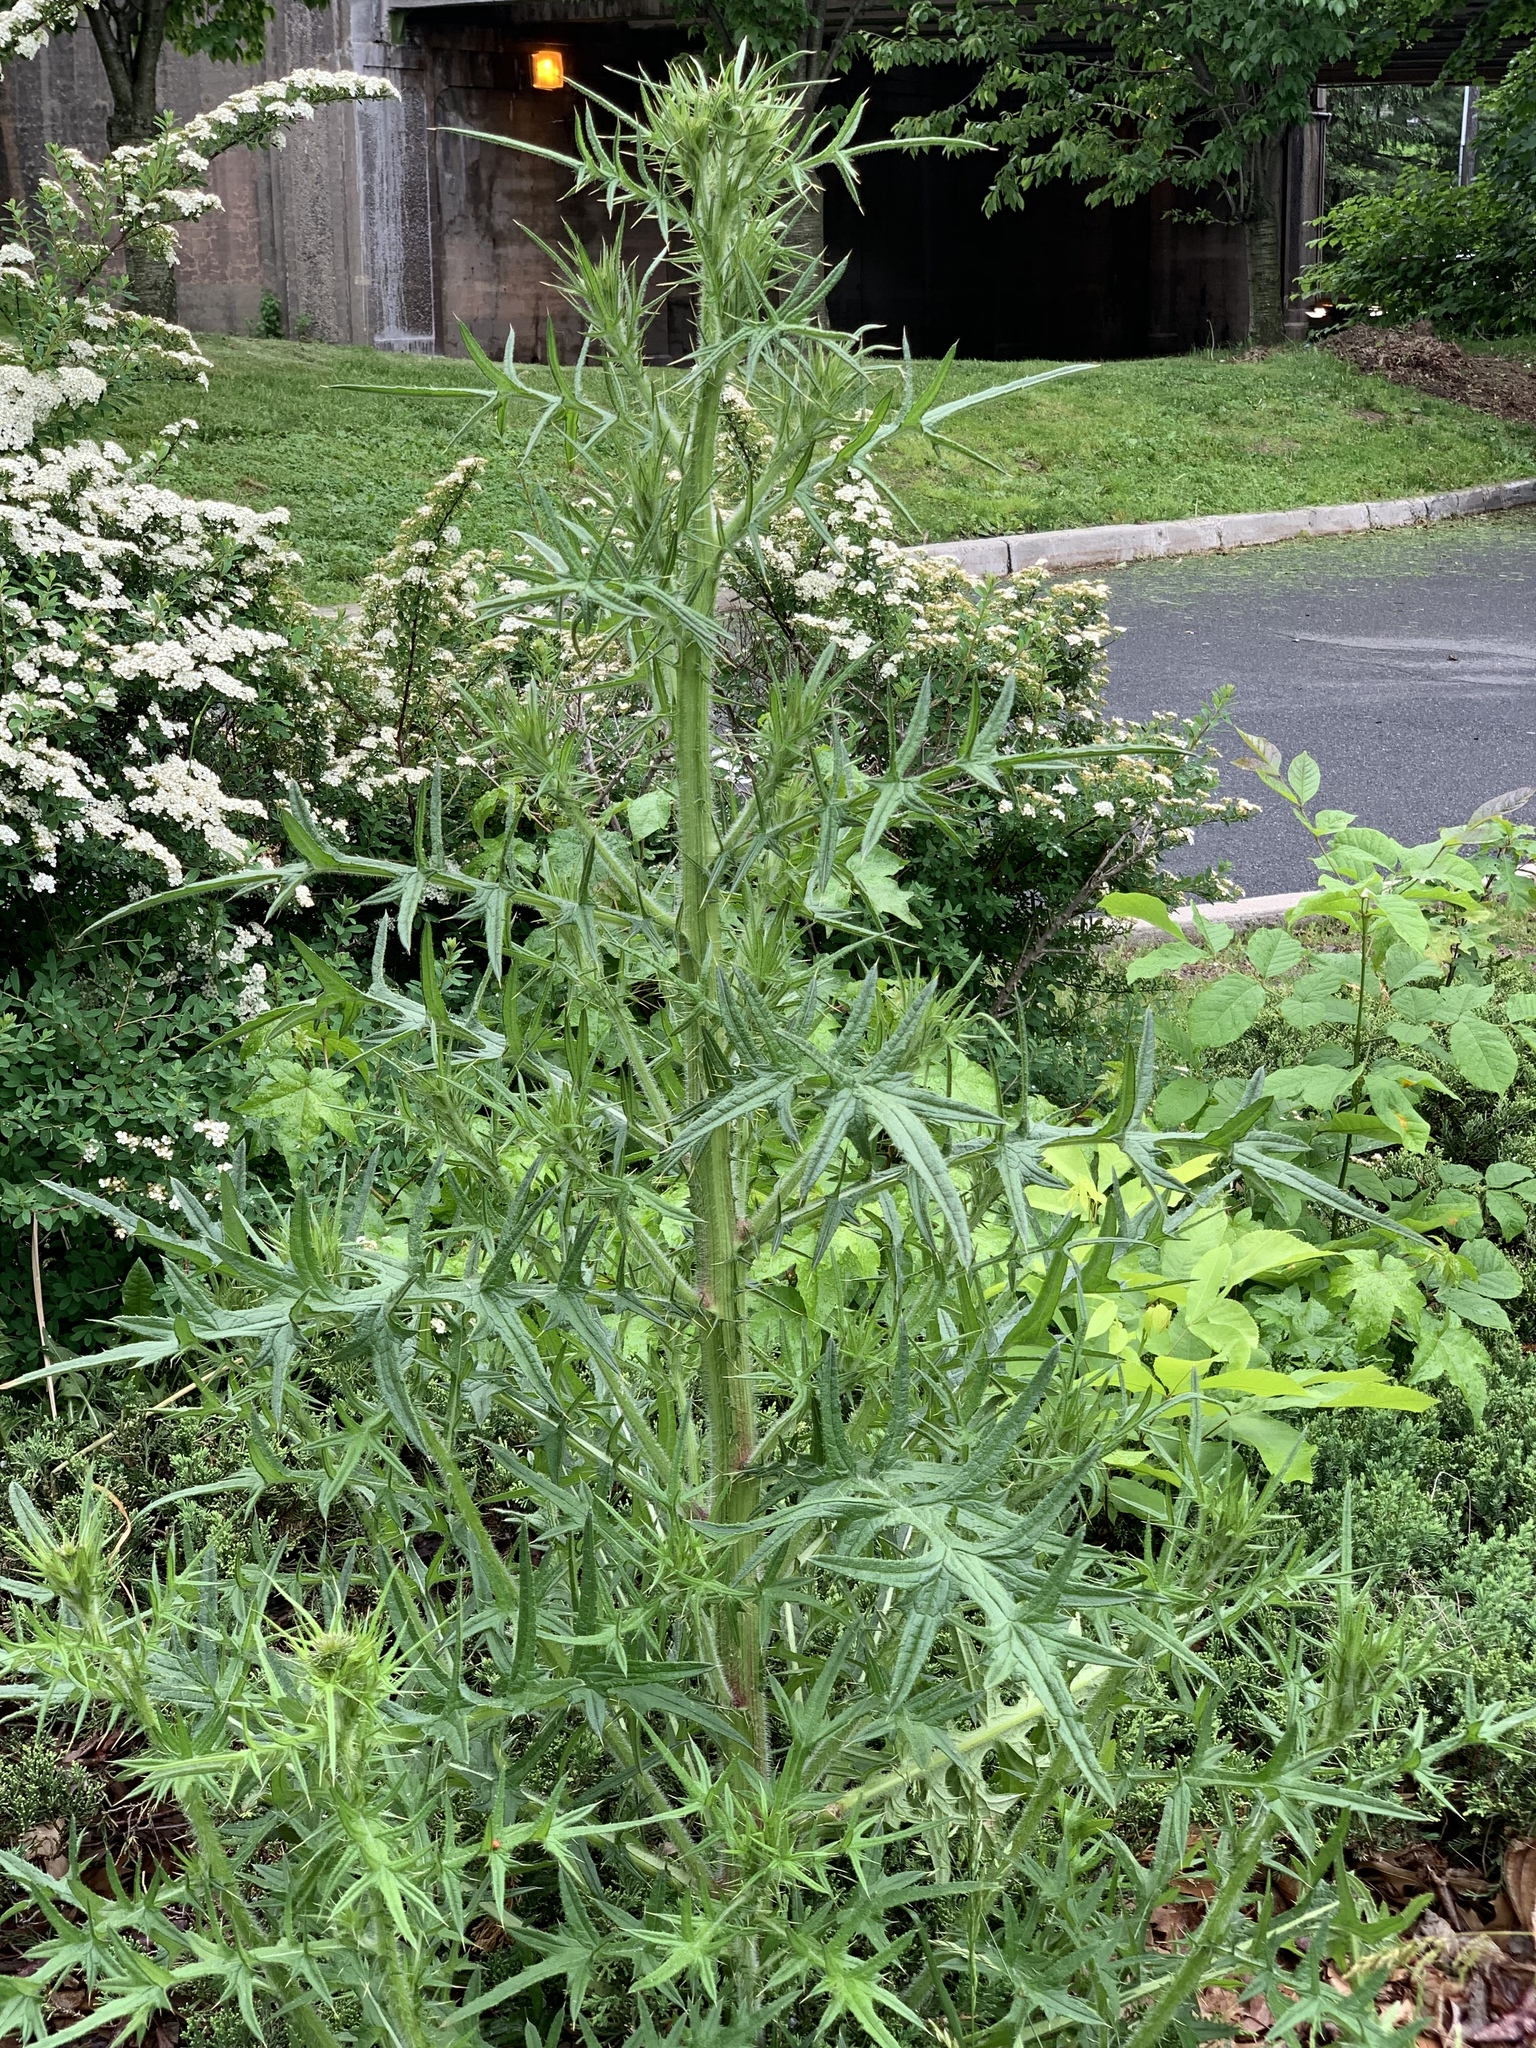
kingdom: Plantae
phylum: Tracheophyta
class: Magnoliopsida
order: Asterales
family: Asteraceae
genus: Cirsium
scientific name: Cirsium vulgare
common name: Bull thistle
